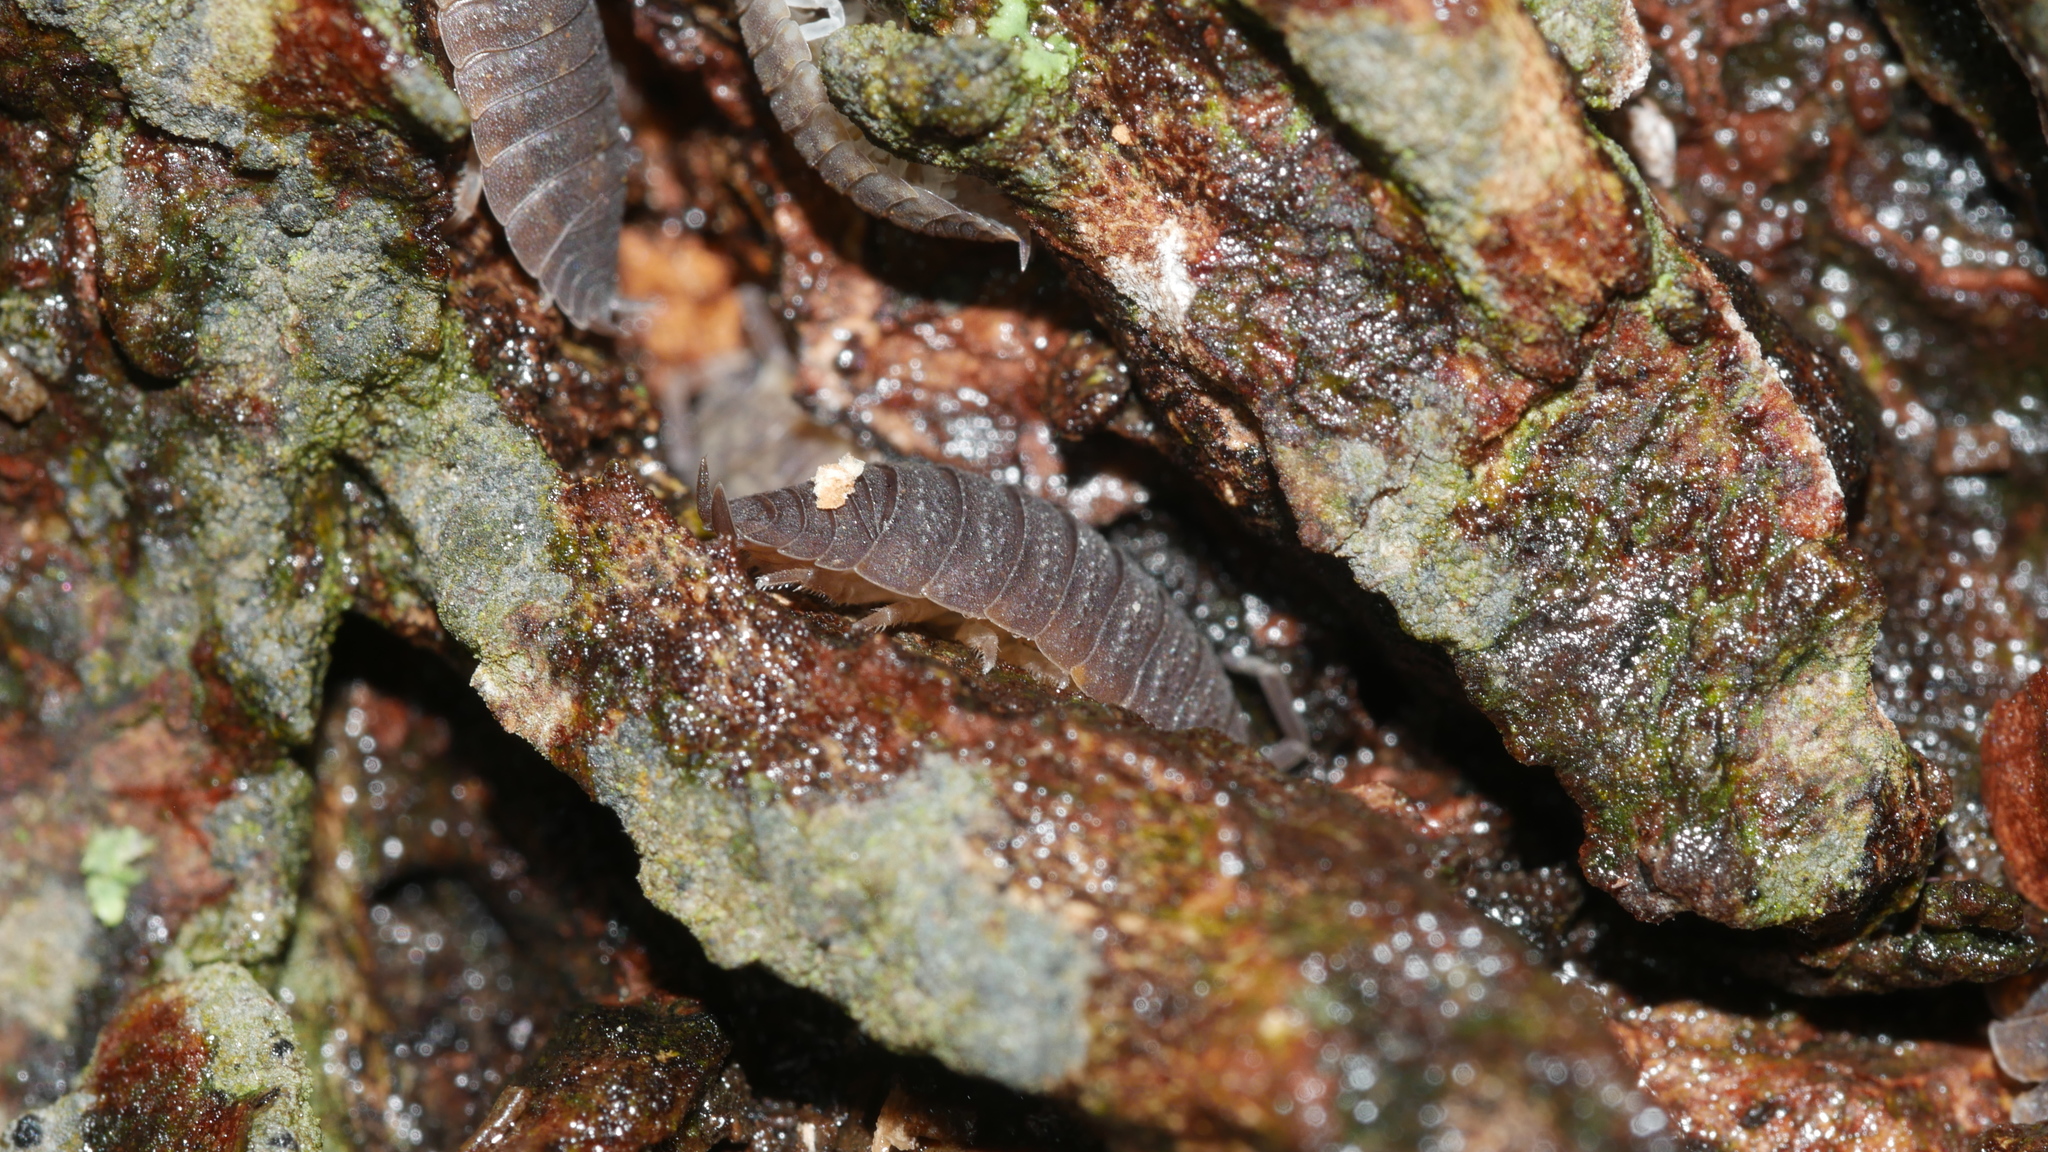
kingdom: Animalia
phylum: Arthropoda
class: Malacostraca
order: Isopoda
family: Porcellionidae
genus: Porcellio
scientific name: Porcellio scaber
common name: Common rough woodlouse
